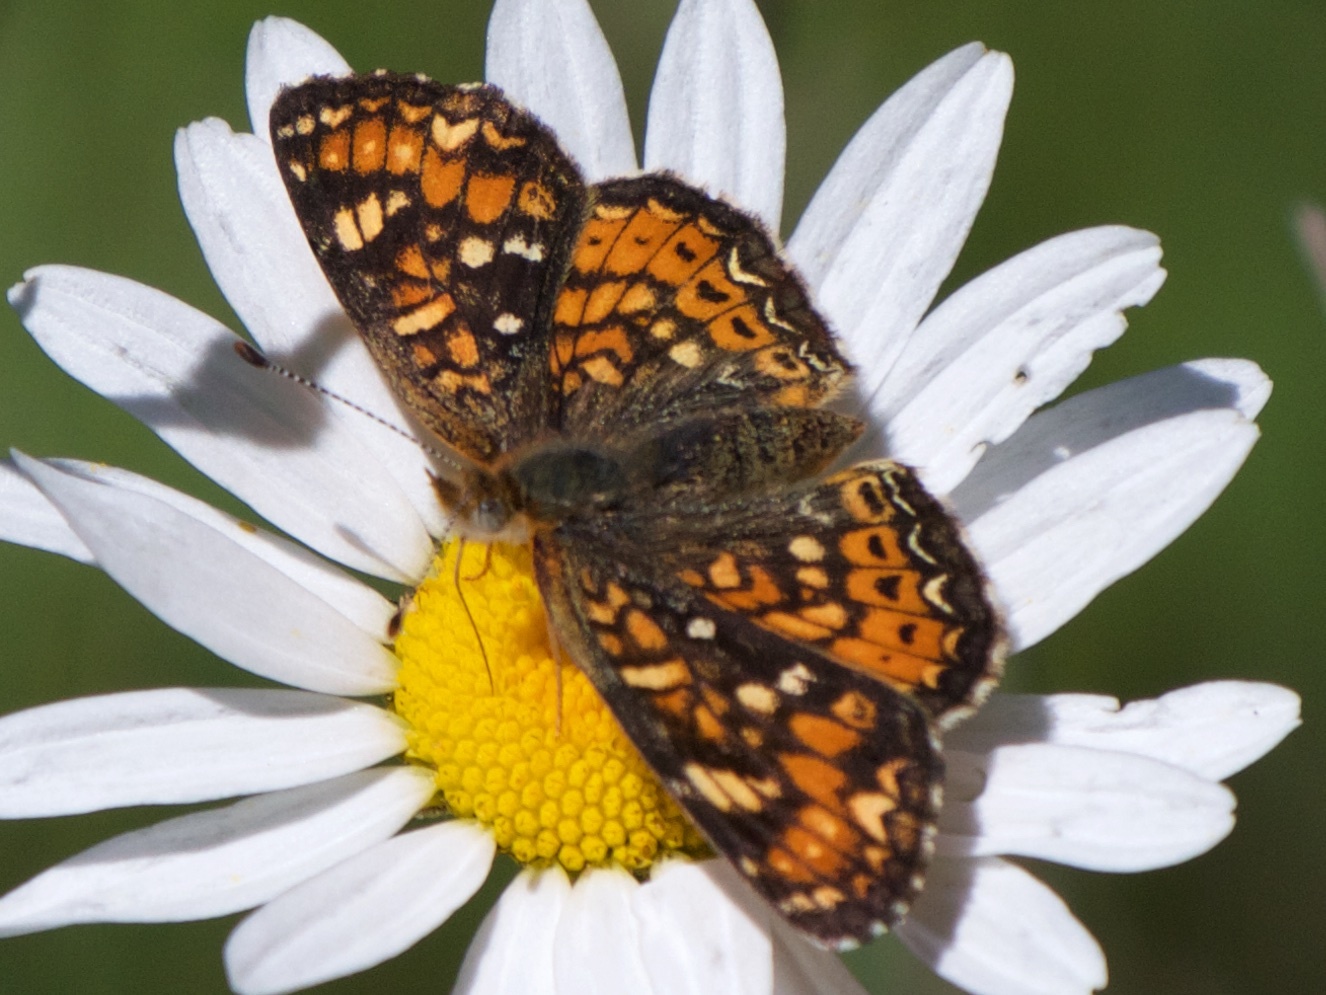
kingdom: Animalia
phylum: Arthropoda
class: Insecta
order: Lepidoptera
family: Nymphalidae
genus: Phyciodes
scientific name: Phyciodes tharos
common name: Pearl crescent
